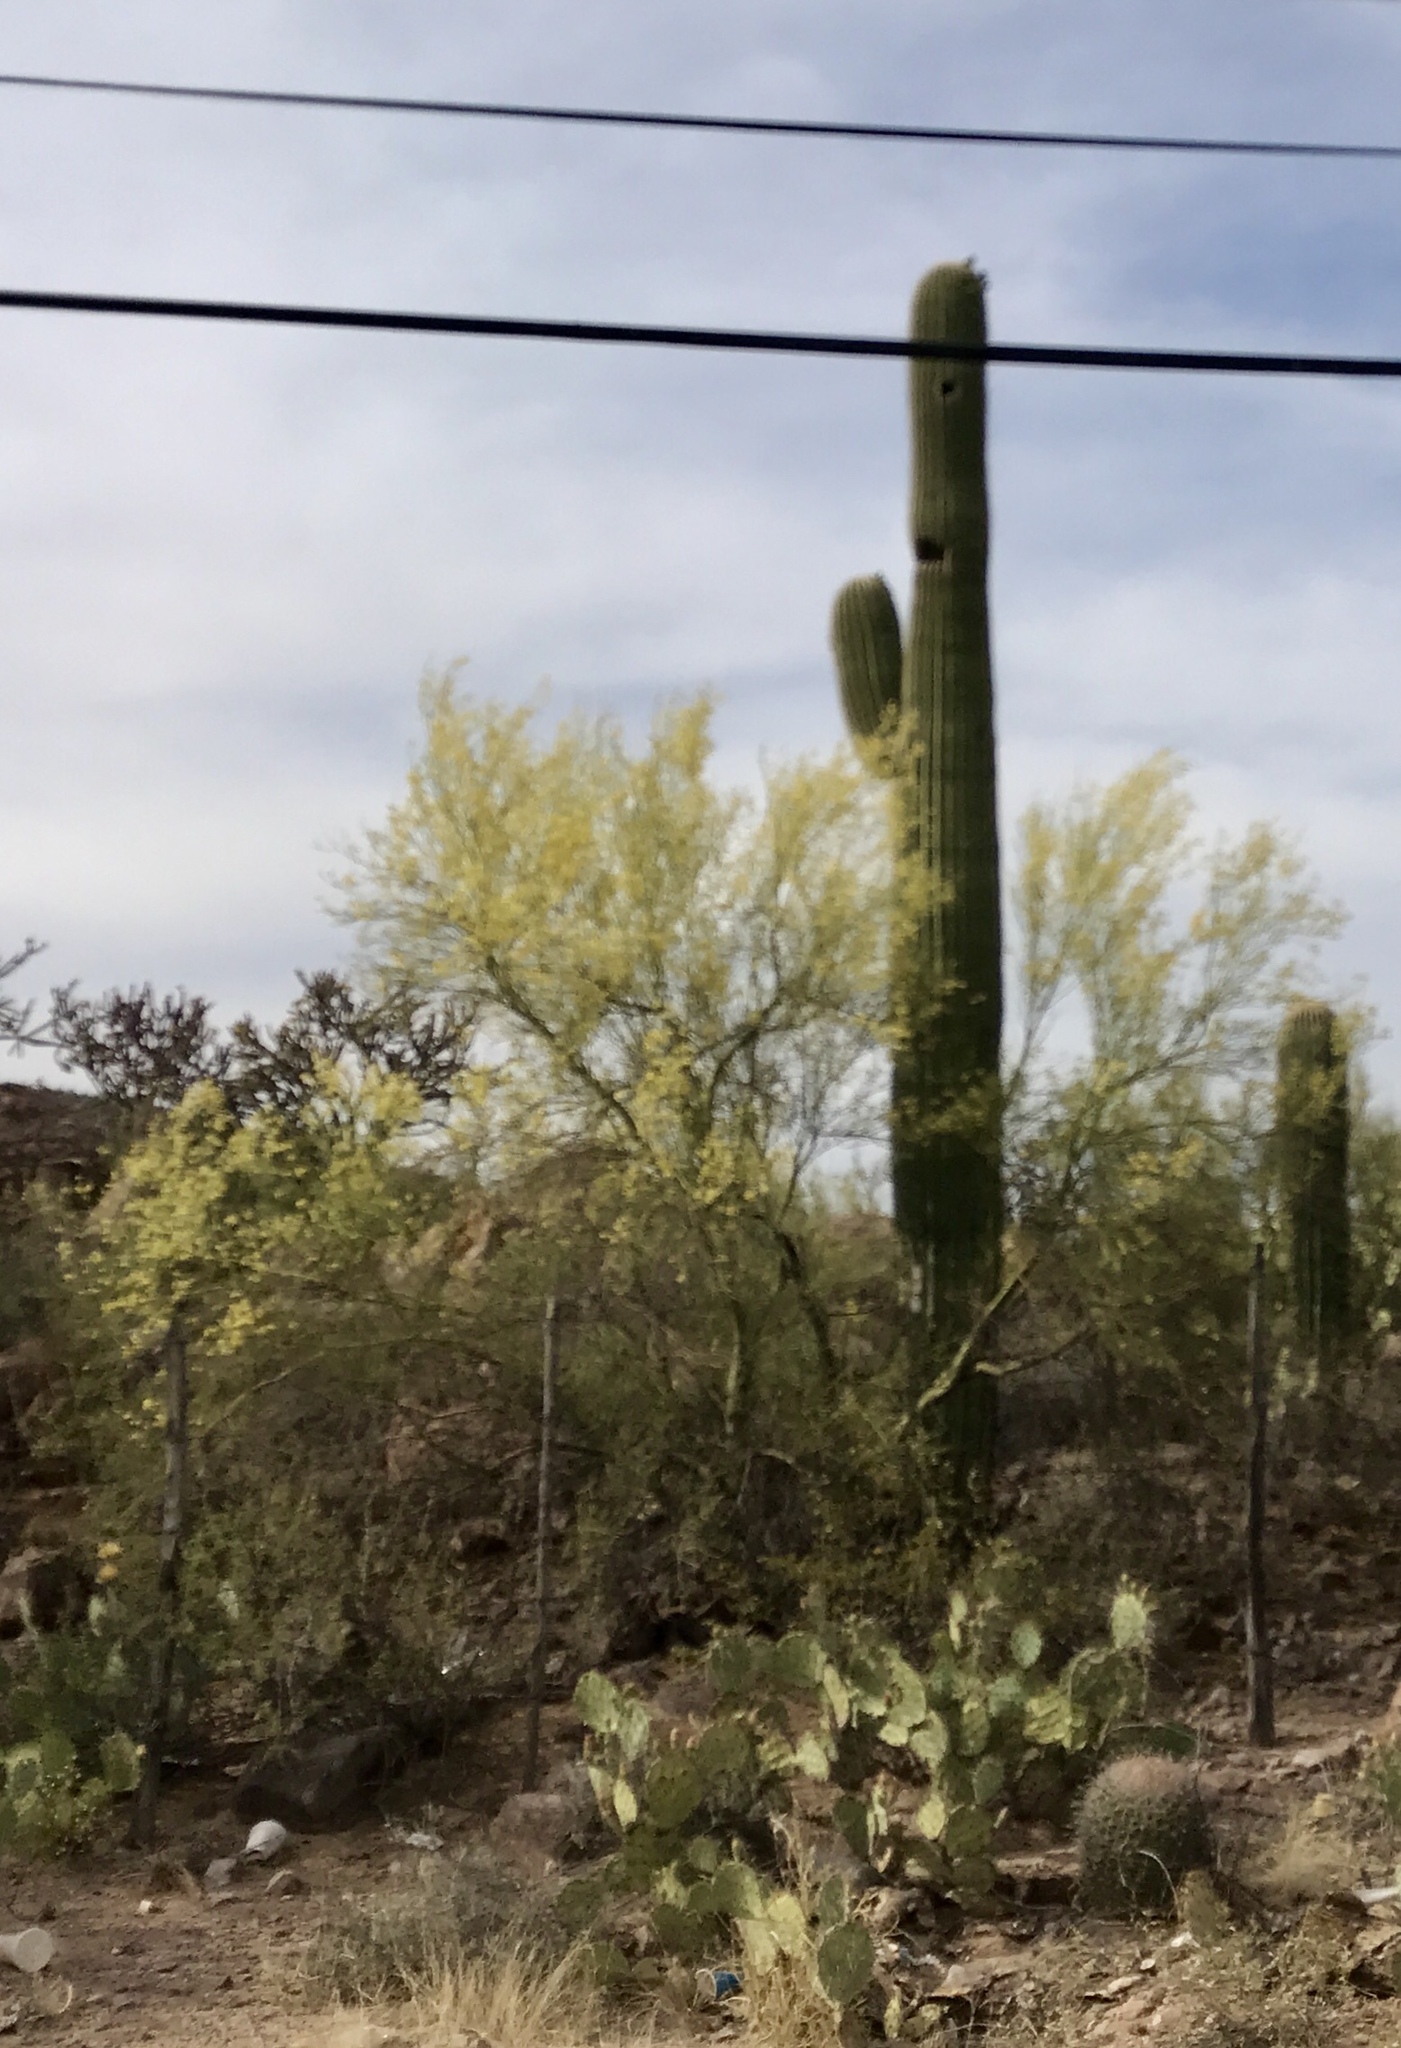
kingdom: Plantae
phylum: Tracheophyta
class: Magnoliopsida
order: Fabales
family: Fabaceae
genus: Parkinsonia
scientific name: Parkinsonia microphylla
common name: Yellow paloverde
